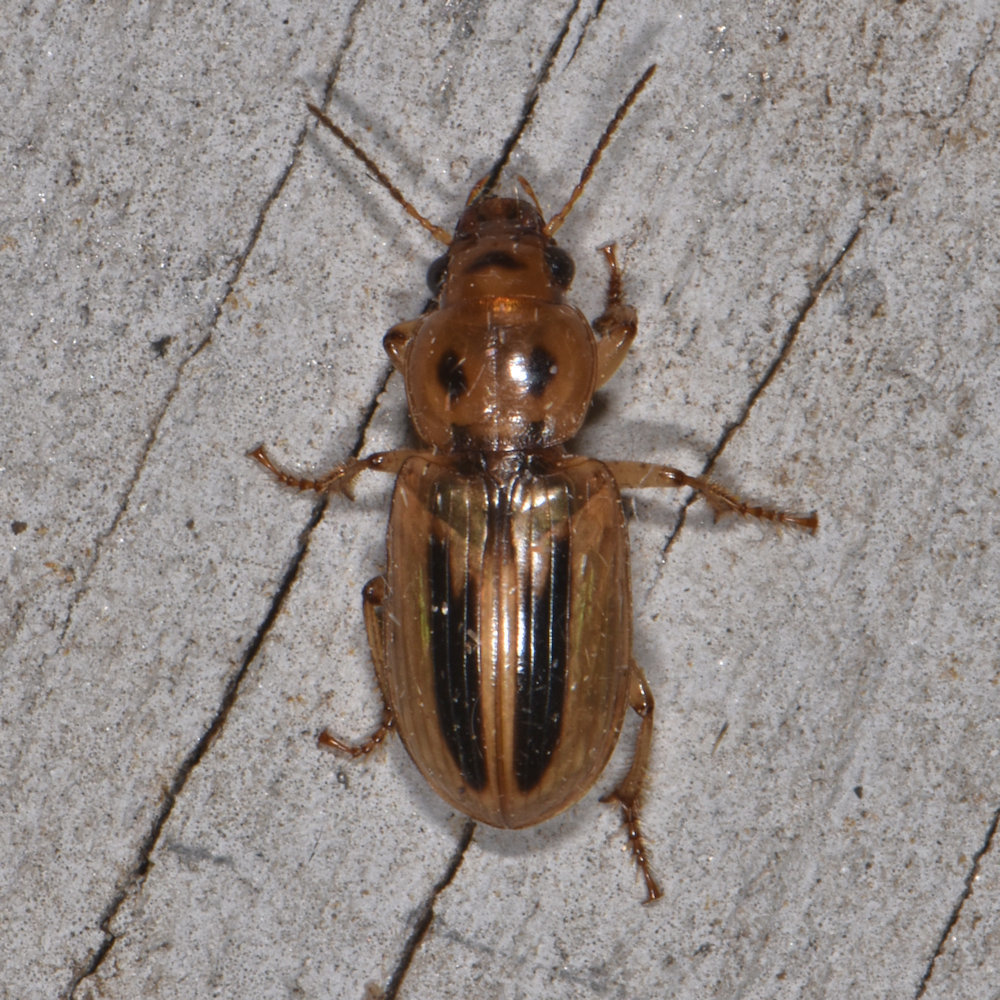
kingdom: Animalia
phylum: Arthropoda
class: Insecta
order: Coleoptera
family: Carabidae
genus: Stenolophus
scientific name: Stenolophus lineola
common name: Lined stenolophus
